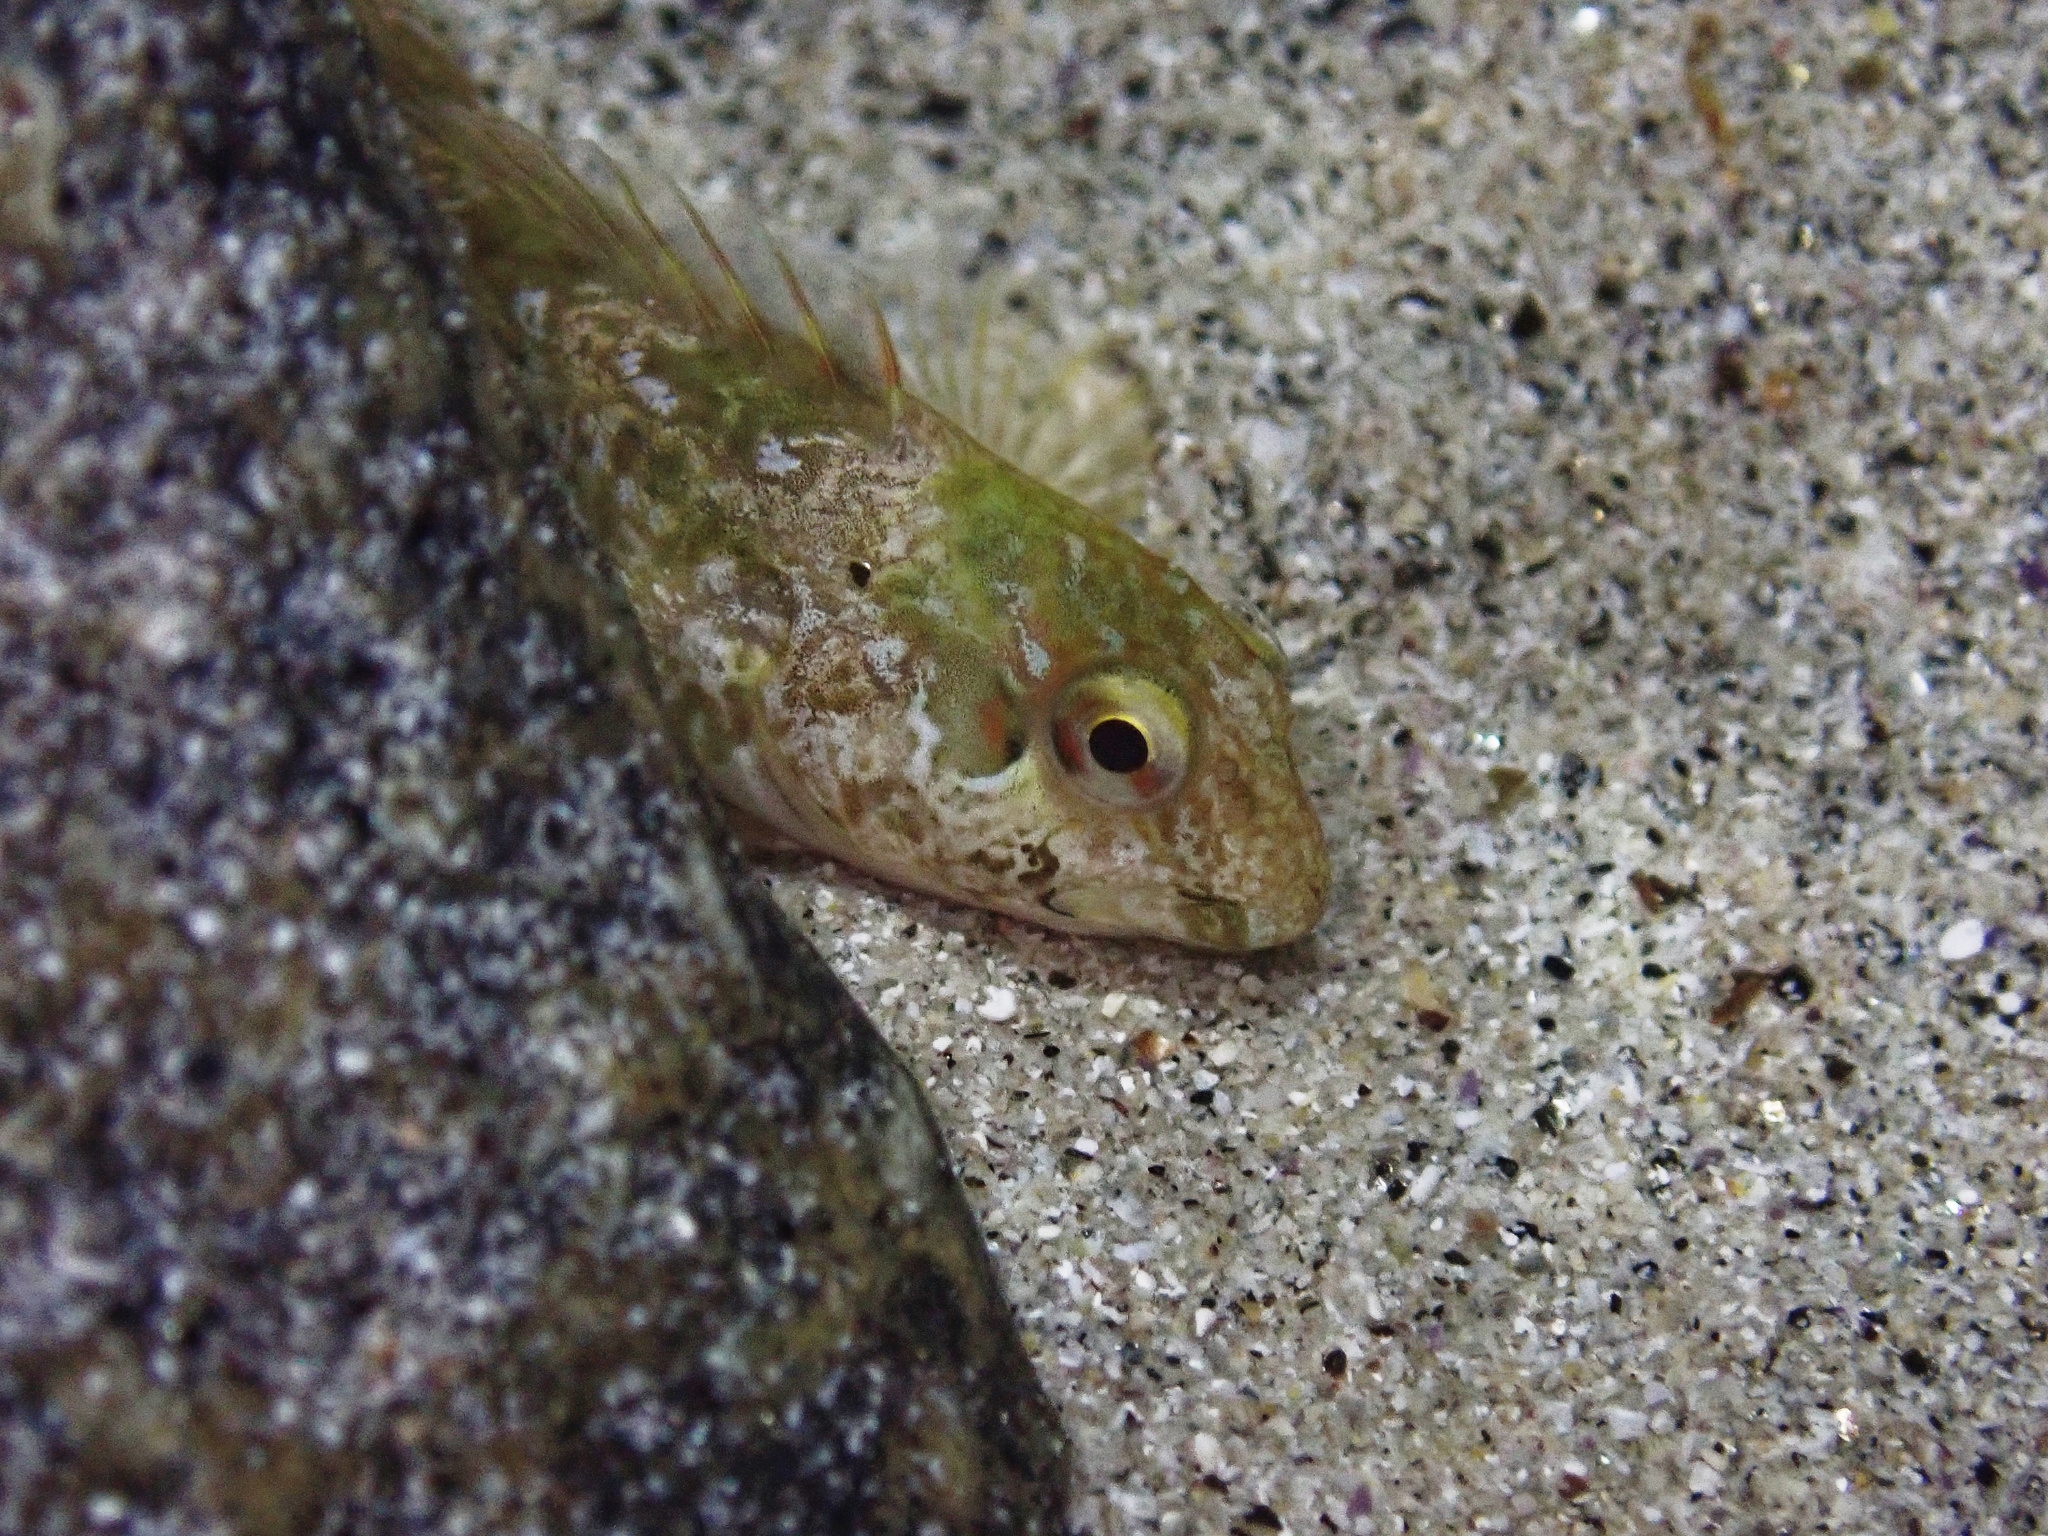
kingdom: Animalia
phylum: Chordata
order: Perciformes
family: Blenniidae
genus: Lipophrys
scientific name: Lipophrys pholis
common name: Shanny
